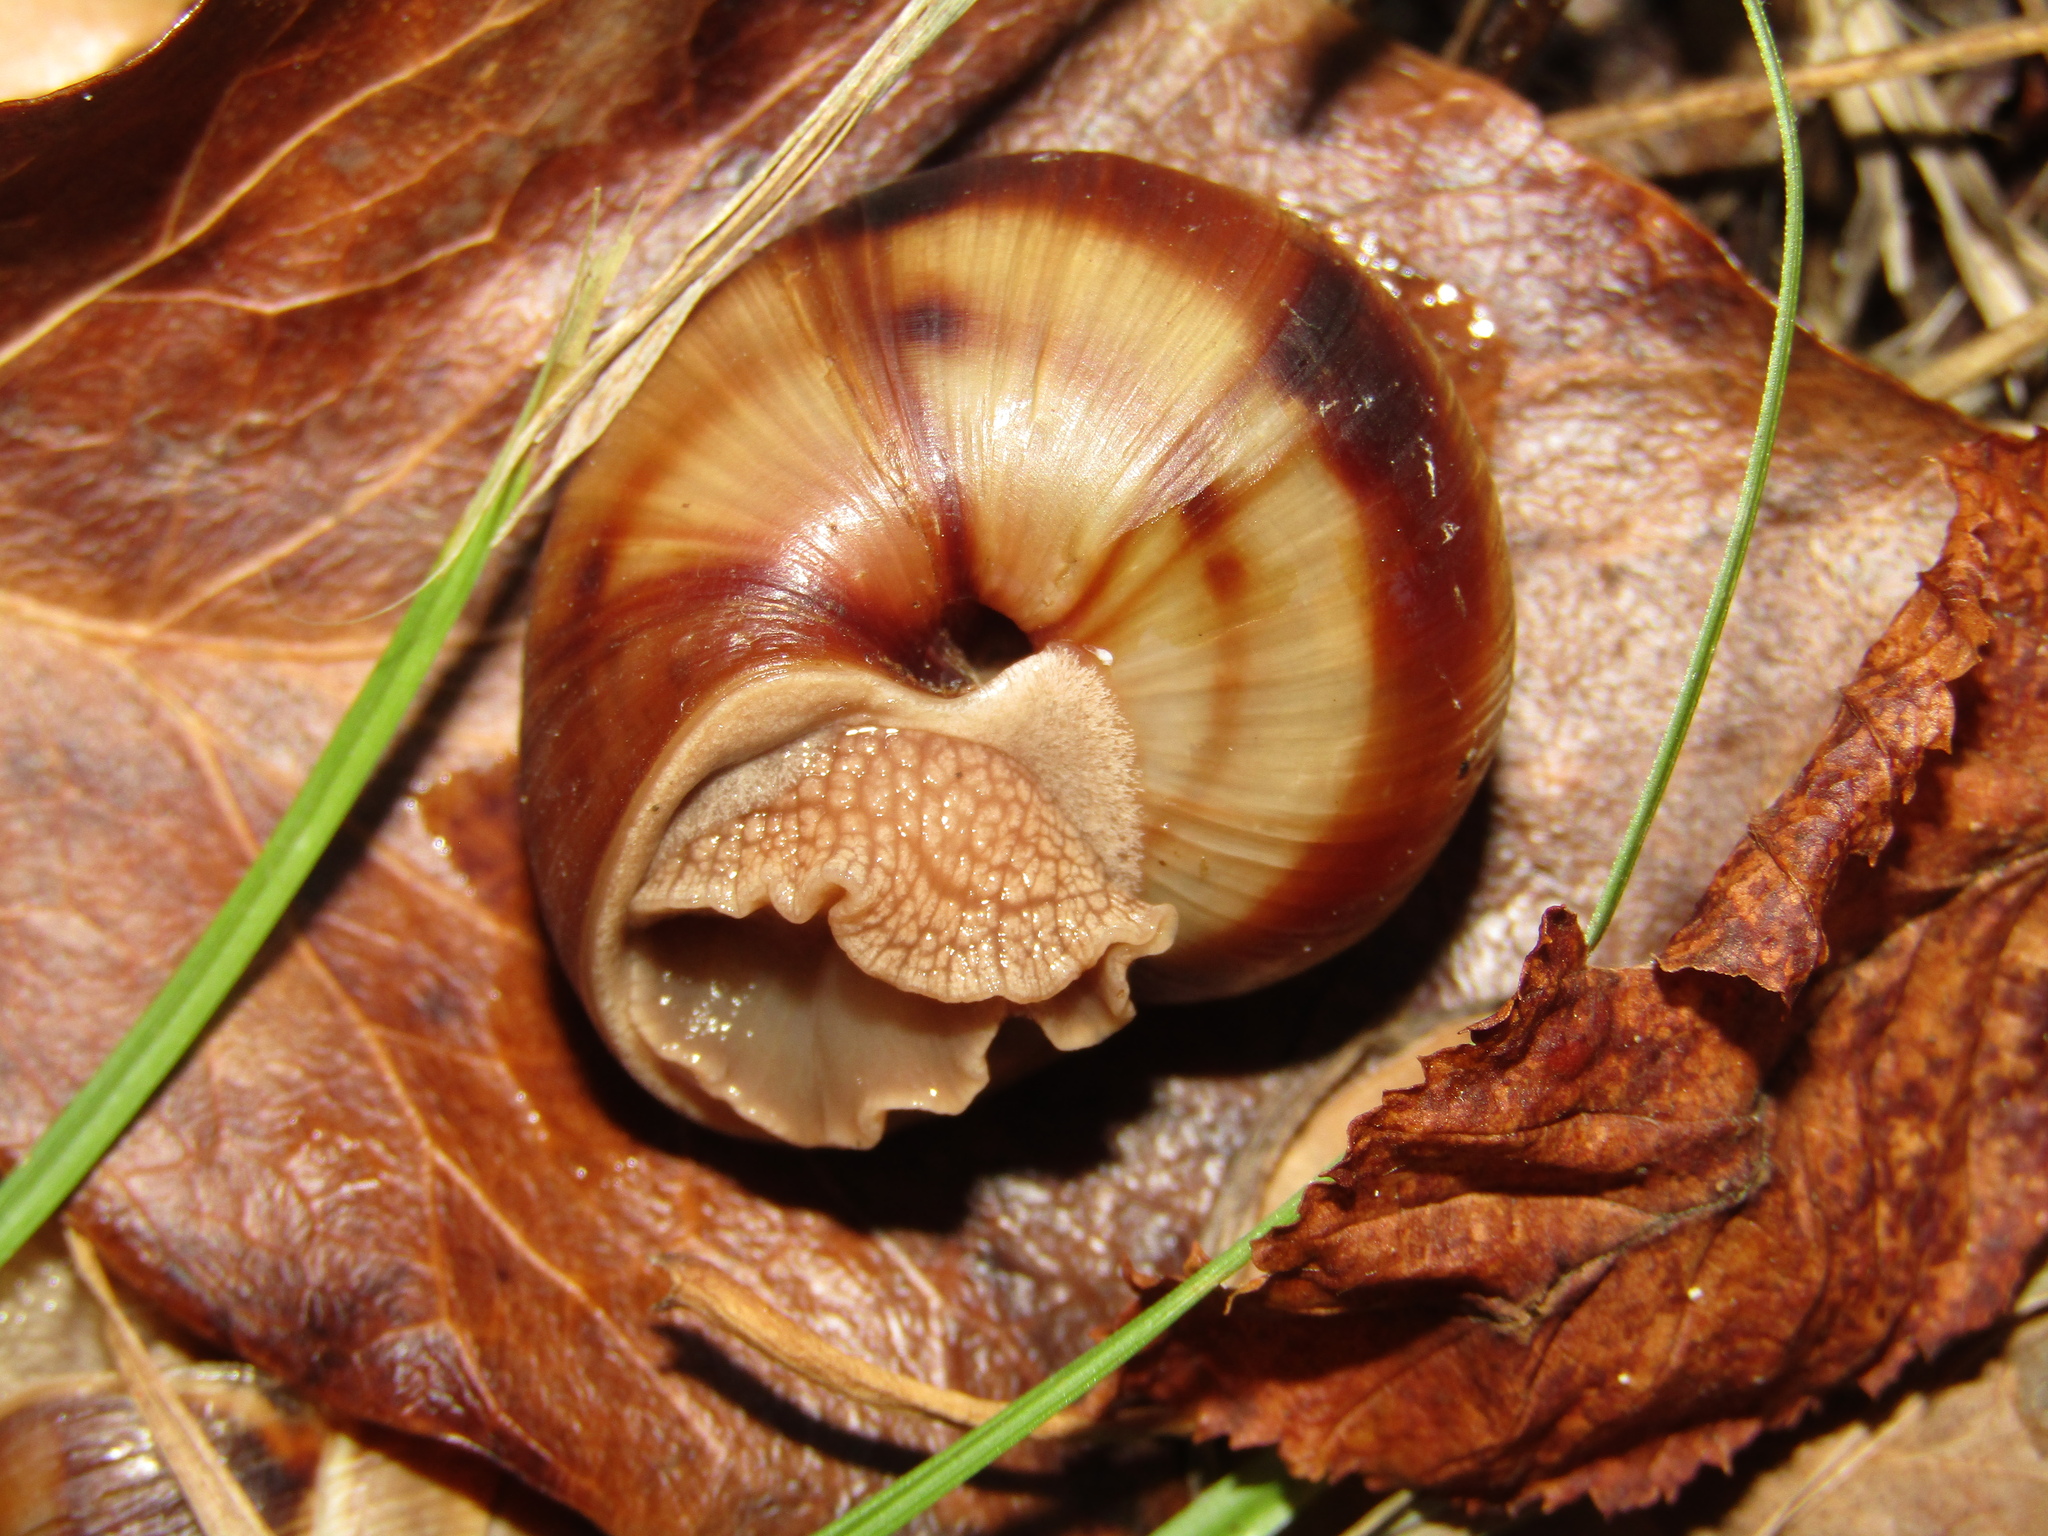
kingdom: Animalia
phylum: Mollusca
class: Gastropoda
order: Stylommatophora
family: Helicidae
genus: Helix
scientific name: Helix lucorum
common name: Turkish snail
